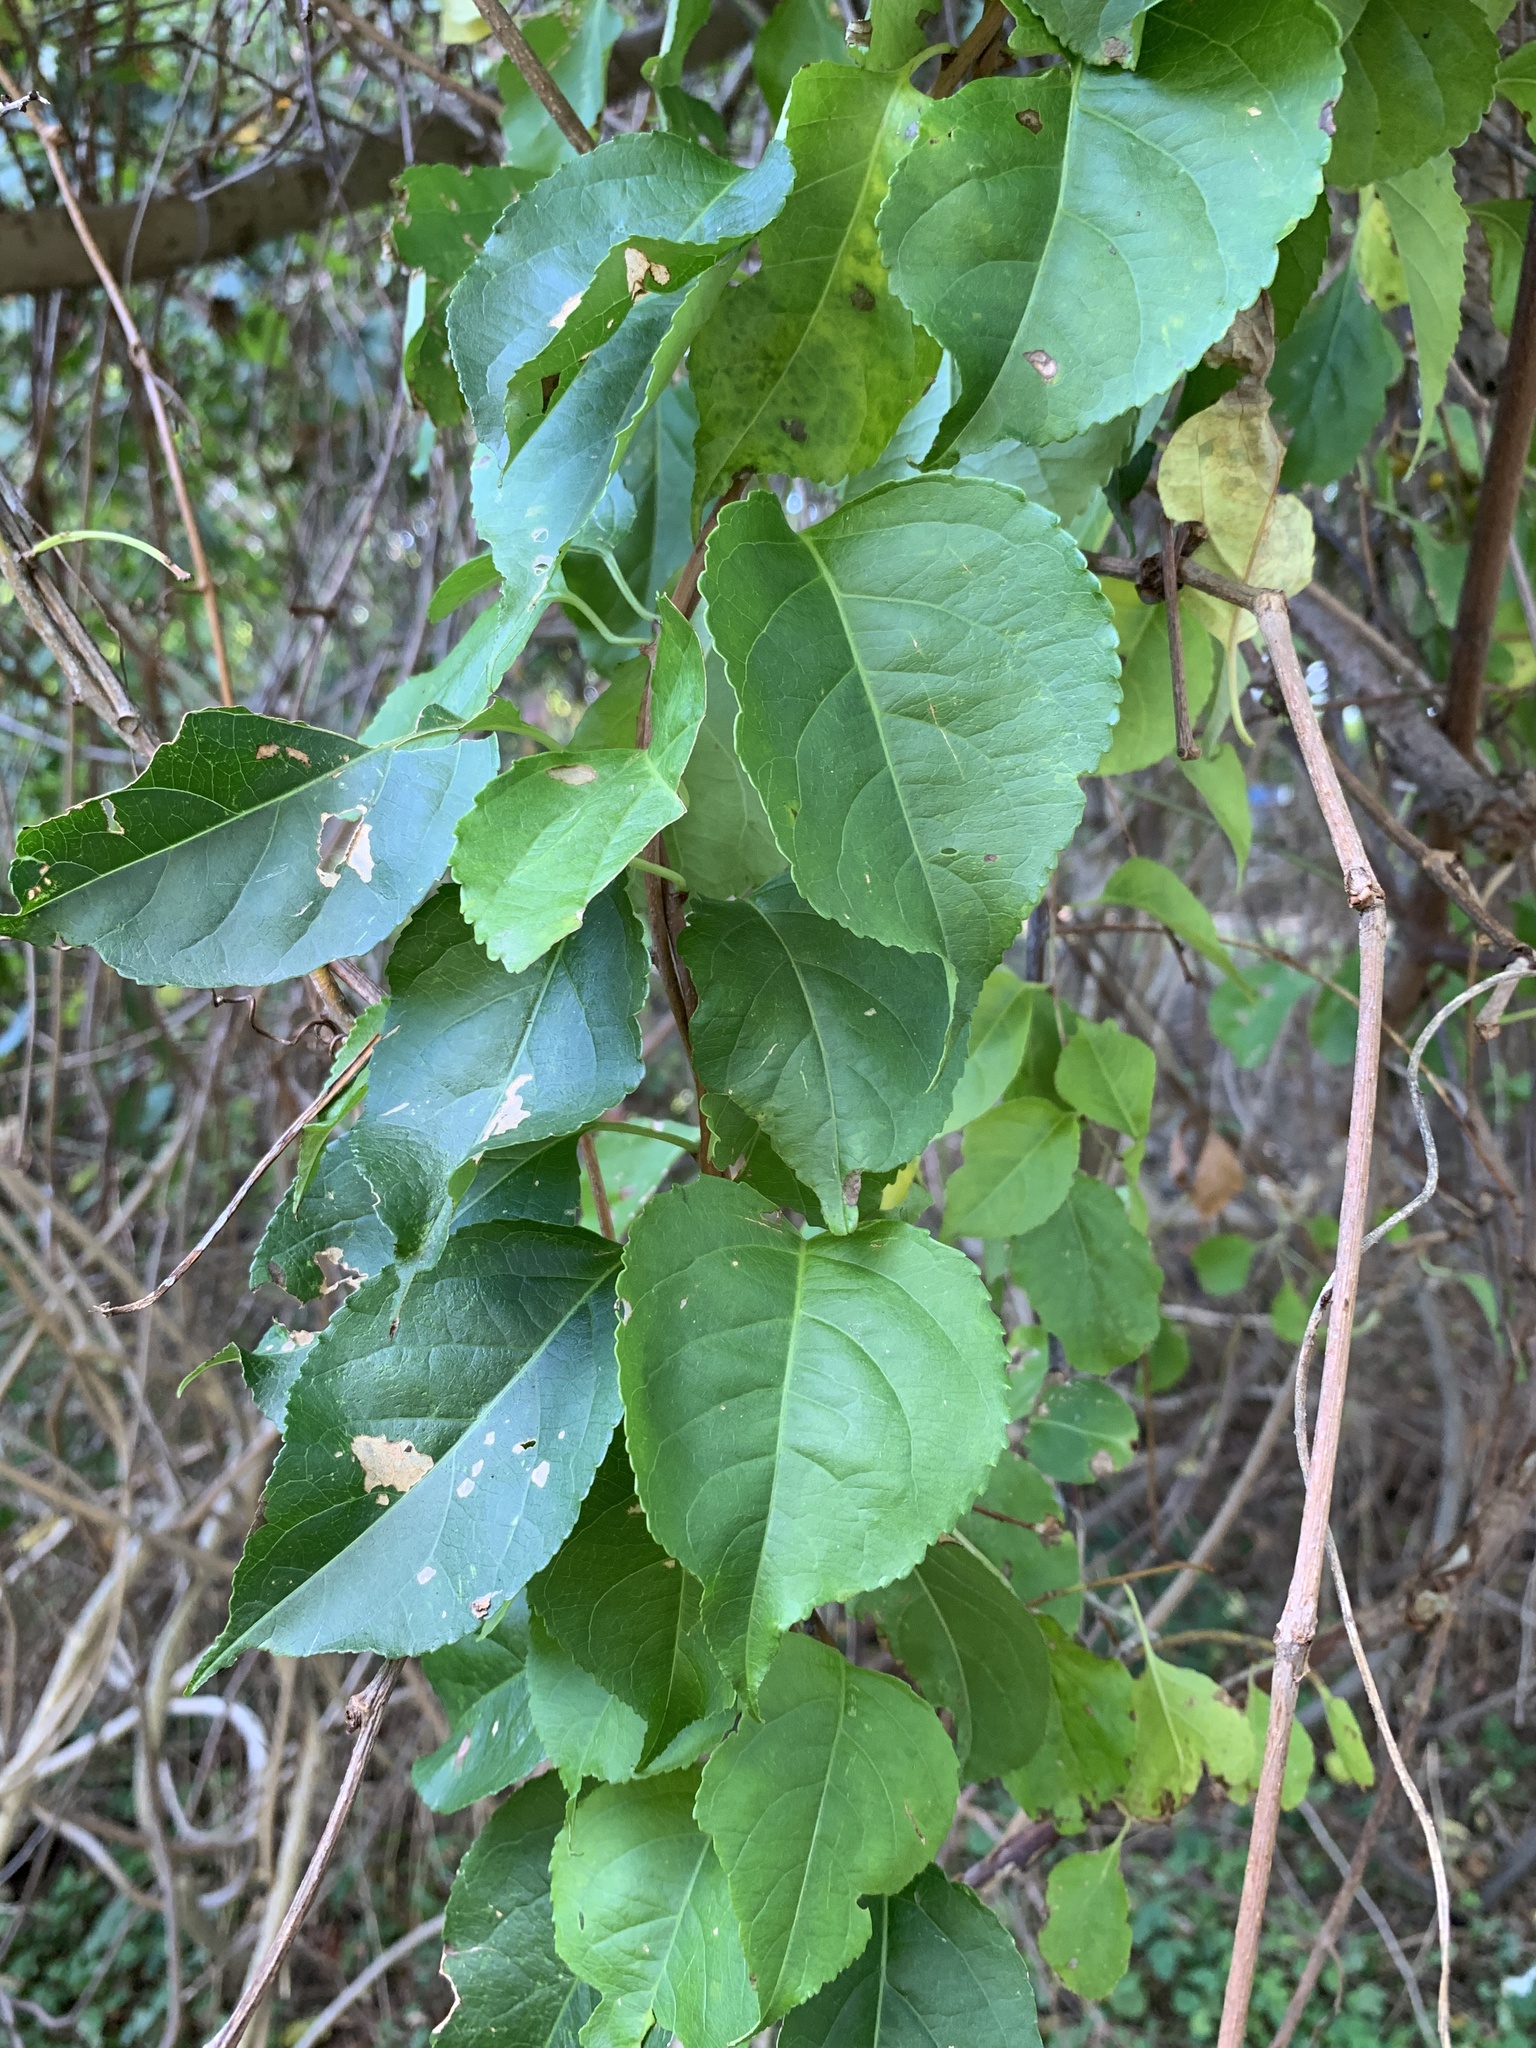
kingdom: Plantae
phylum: Tracheophyta
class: Magnoliopsida
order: Celastrales
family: Celastraceae
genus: Celastrus
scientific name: Celastrus orbiculatus
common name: Oriental bittersweet
